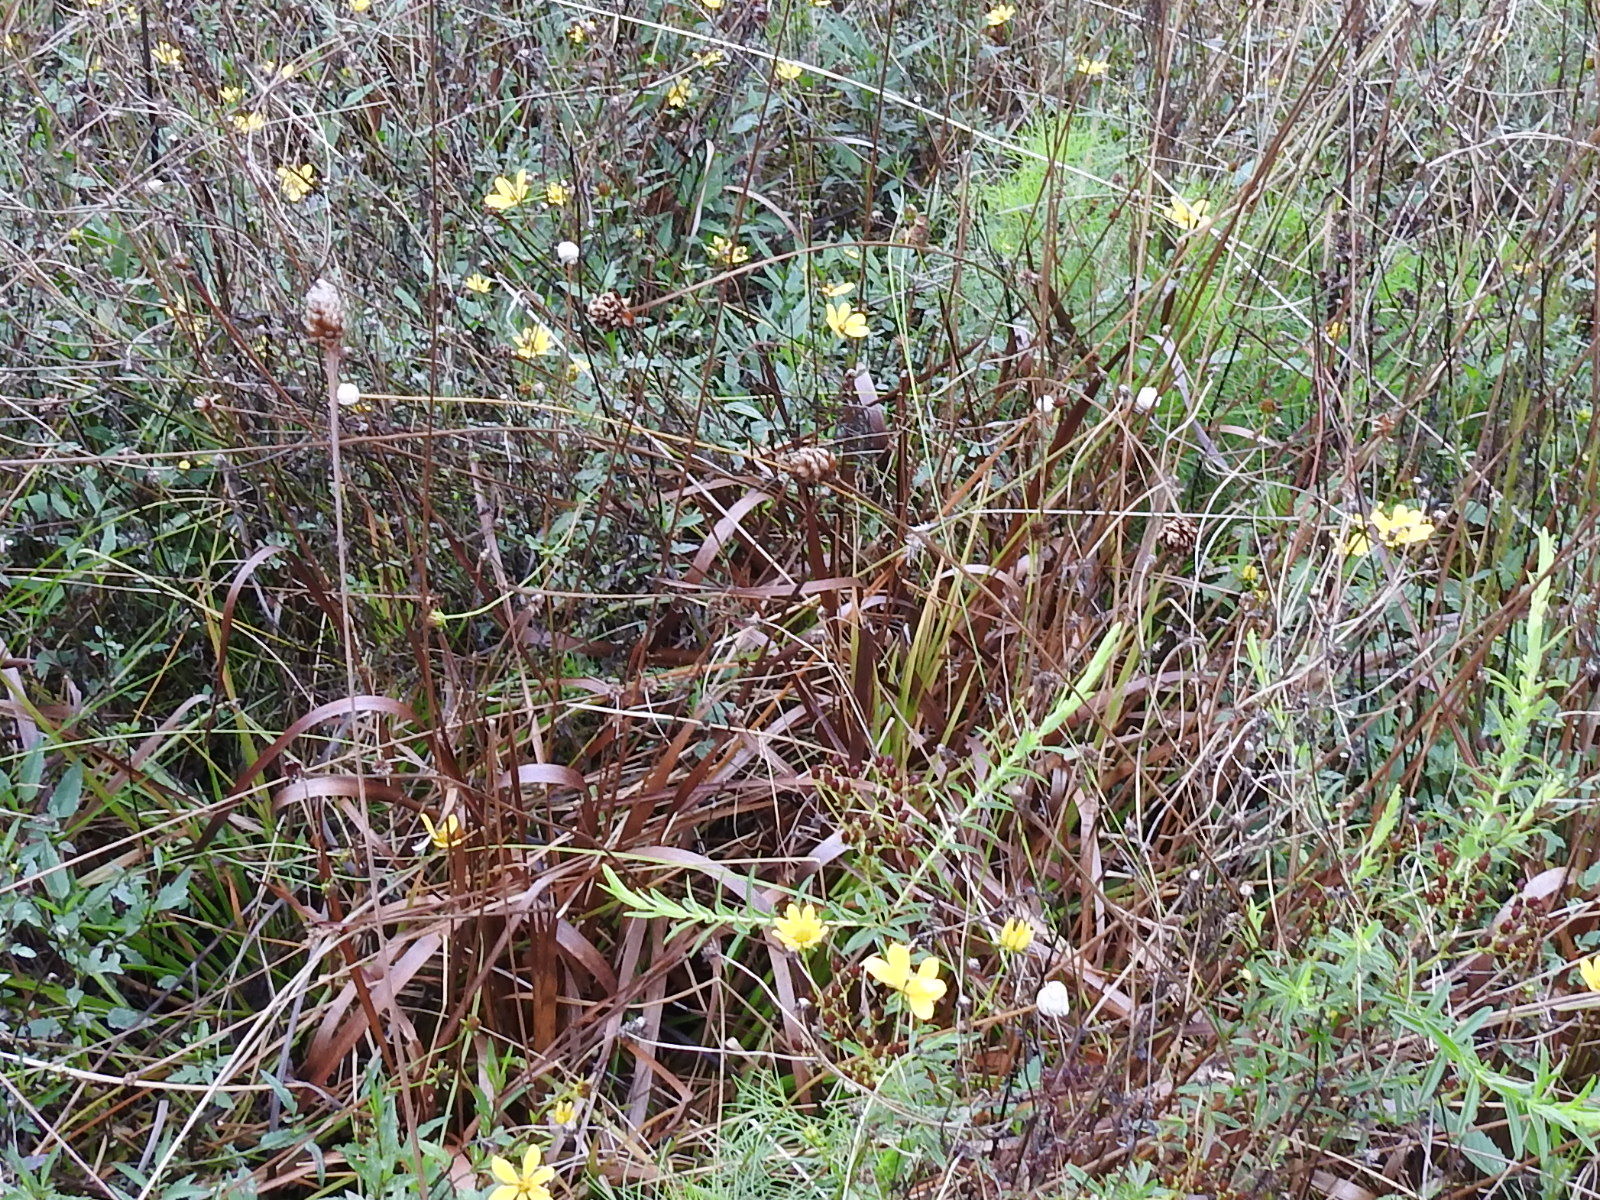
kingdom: Plantae
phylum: Tracheophyta
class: Liliopsida
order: Poales
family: Eriocaulaceae
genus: Eriocaulon
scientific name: Eriocaulon decangulare
